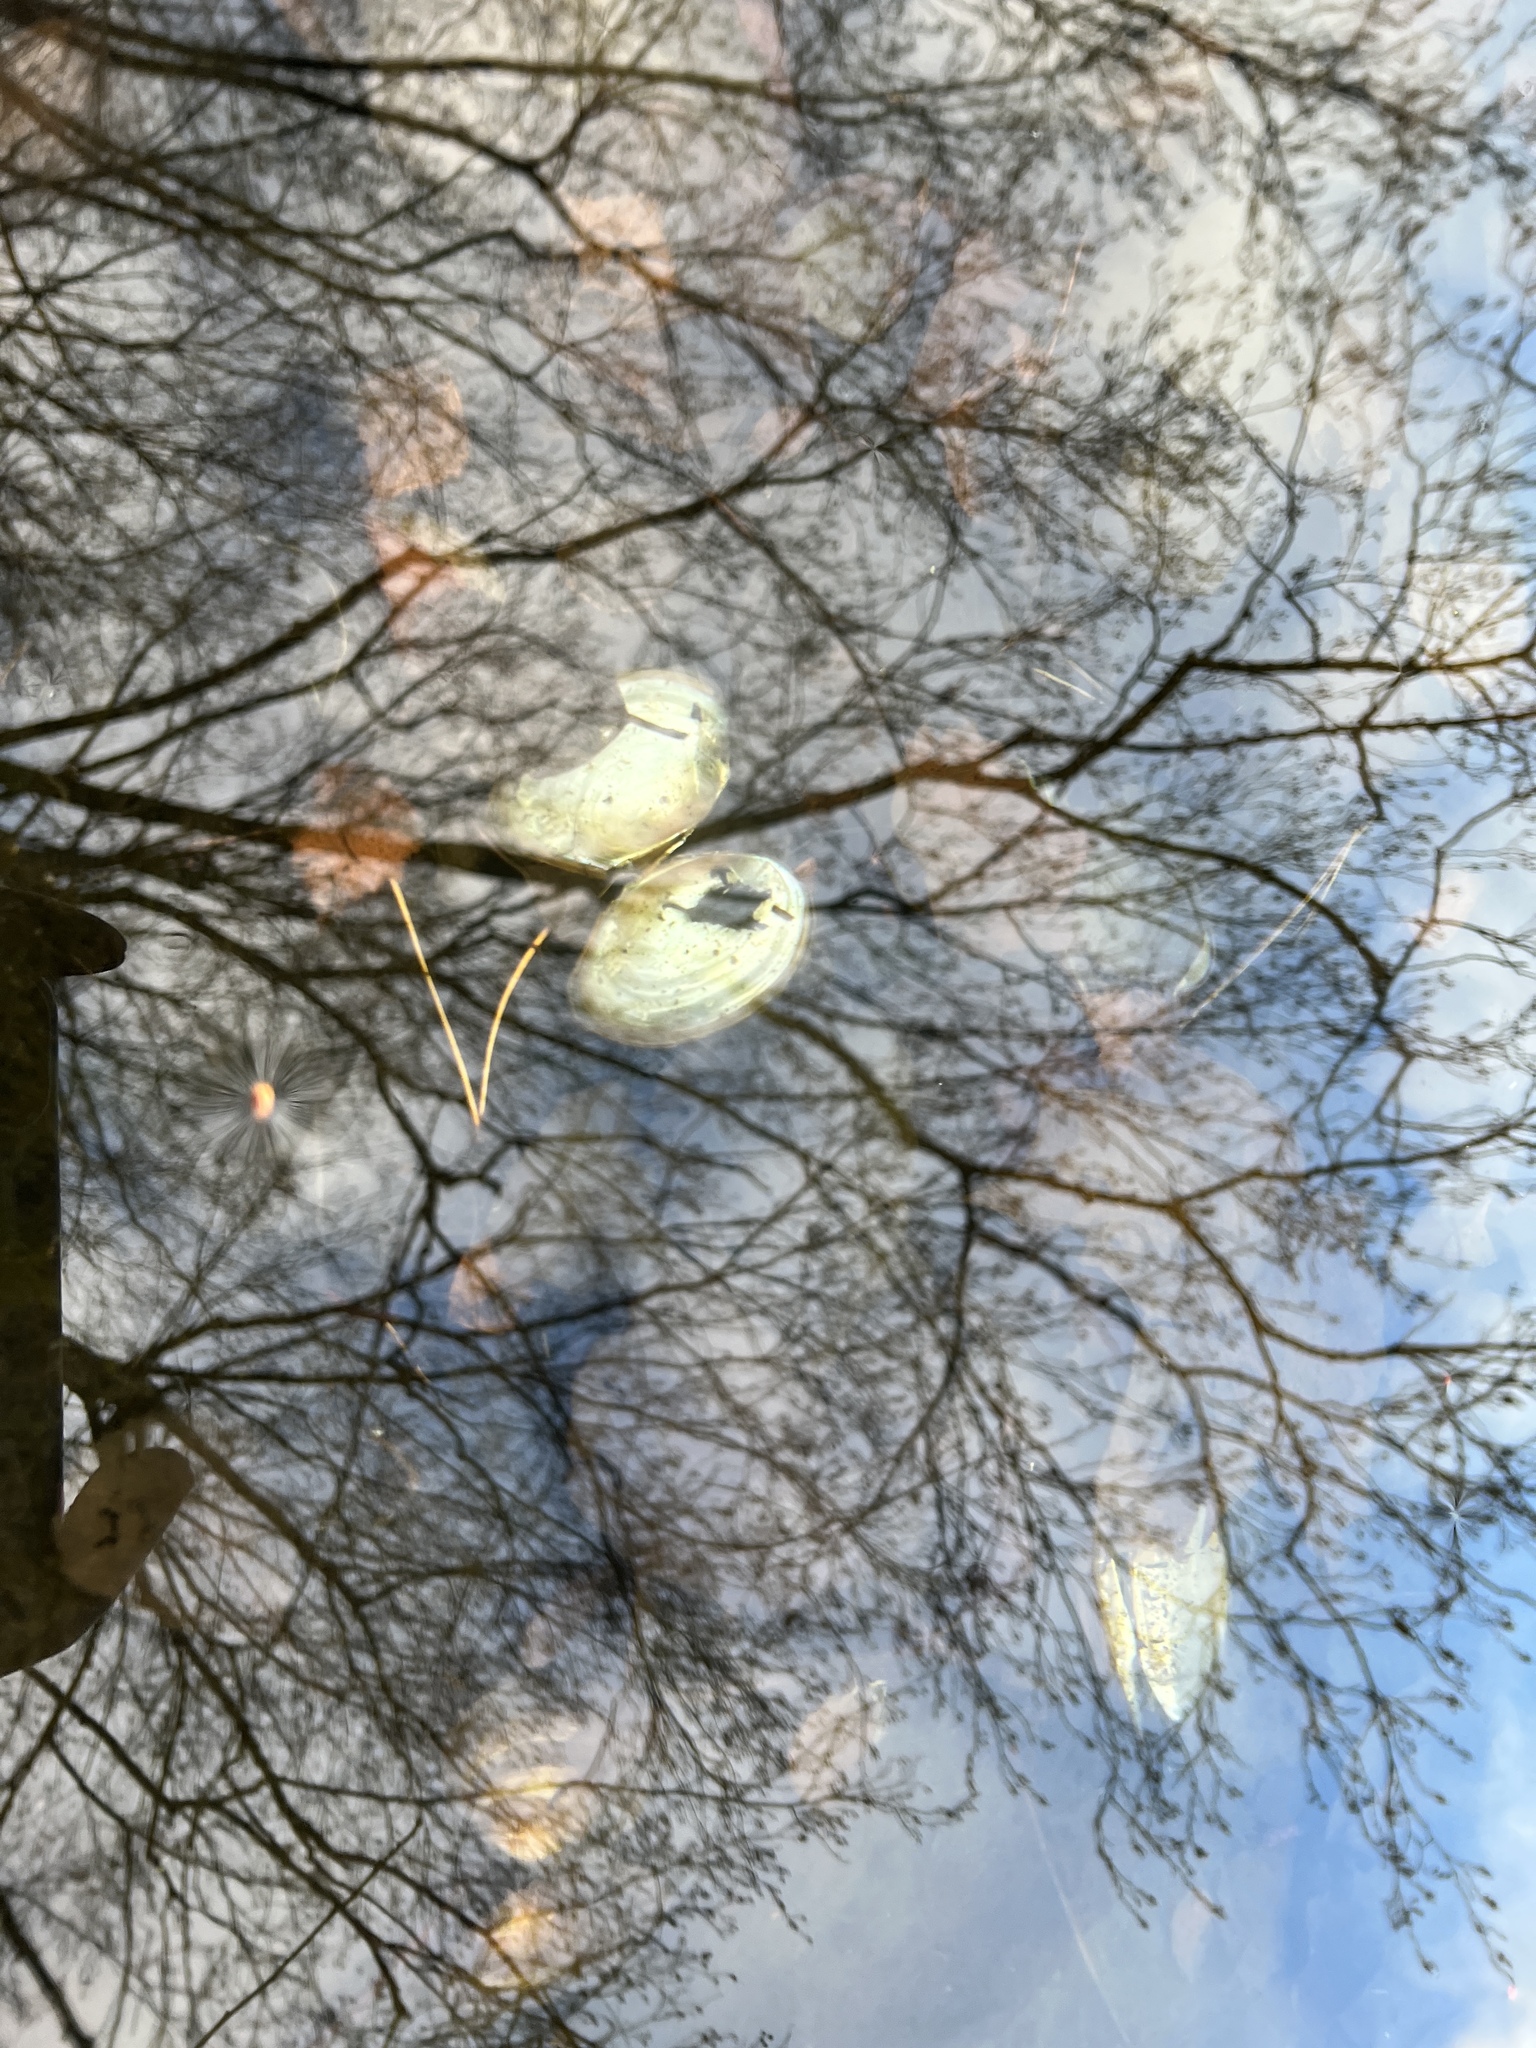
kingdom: Animalia
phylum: Mollusca
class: Bivalvia
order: Unionida
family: Unionidae
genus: Anodonta
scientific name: Anodonta anatina
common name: Duck mussel
